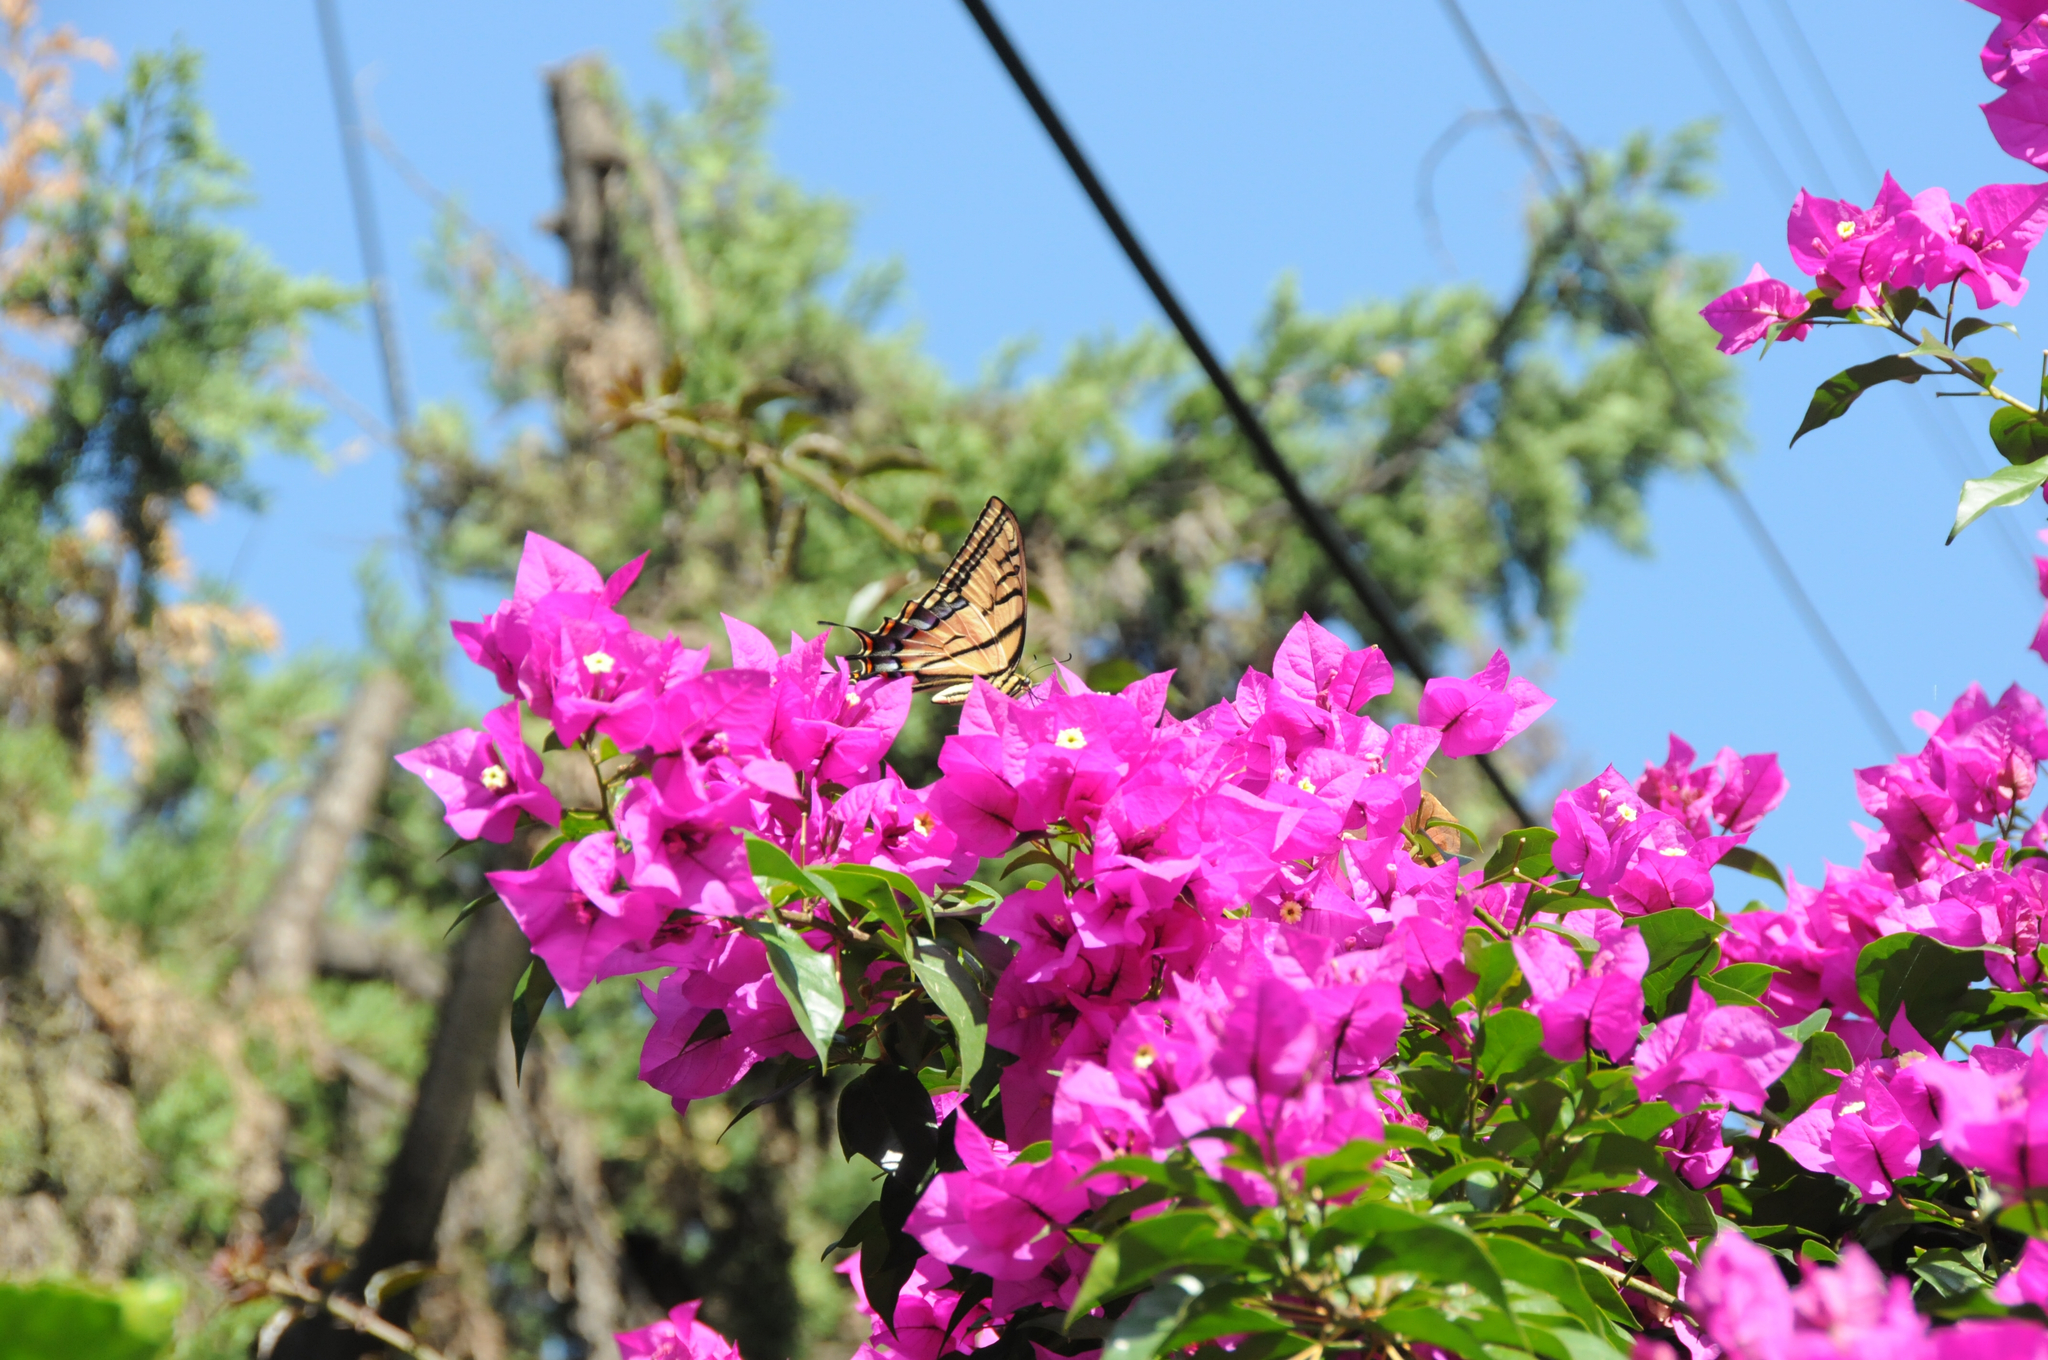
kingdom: Animalia
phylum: Arthropoda
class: Insecta
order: Lepidoptera
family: Papilionidae
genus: Papilio
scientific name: Papilio multicaudata
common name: Two-tailed tiger swallowtail
